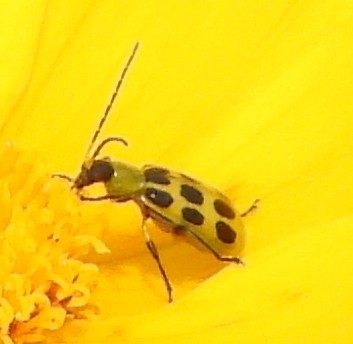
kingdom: Animalia
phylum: Arthropoda
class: Insecta
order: Coleoptera
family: Chrysomelidae
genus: Diabrotica
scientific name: Diabrotica undecimpunctata
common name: Spotted cucumber beetle
